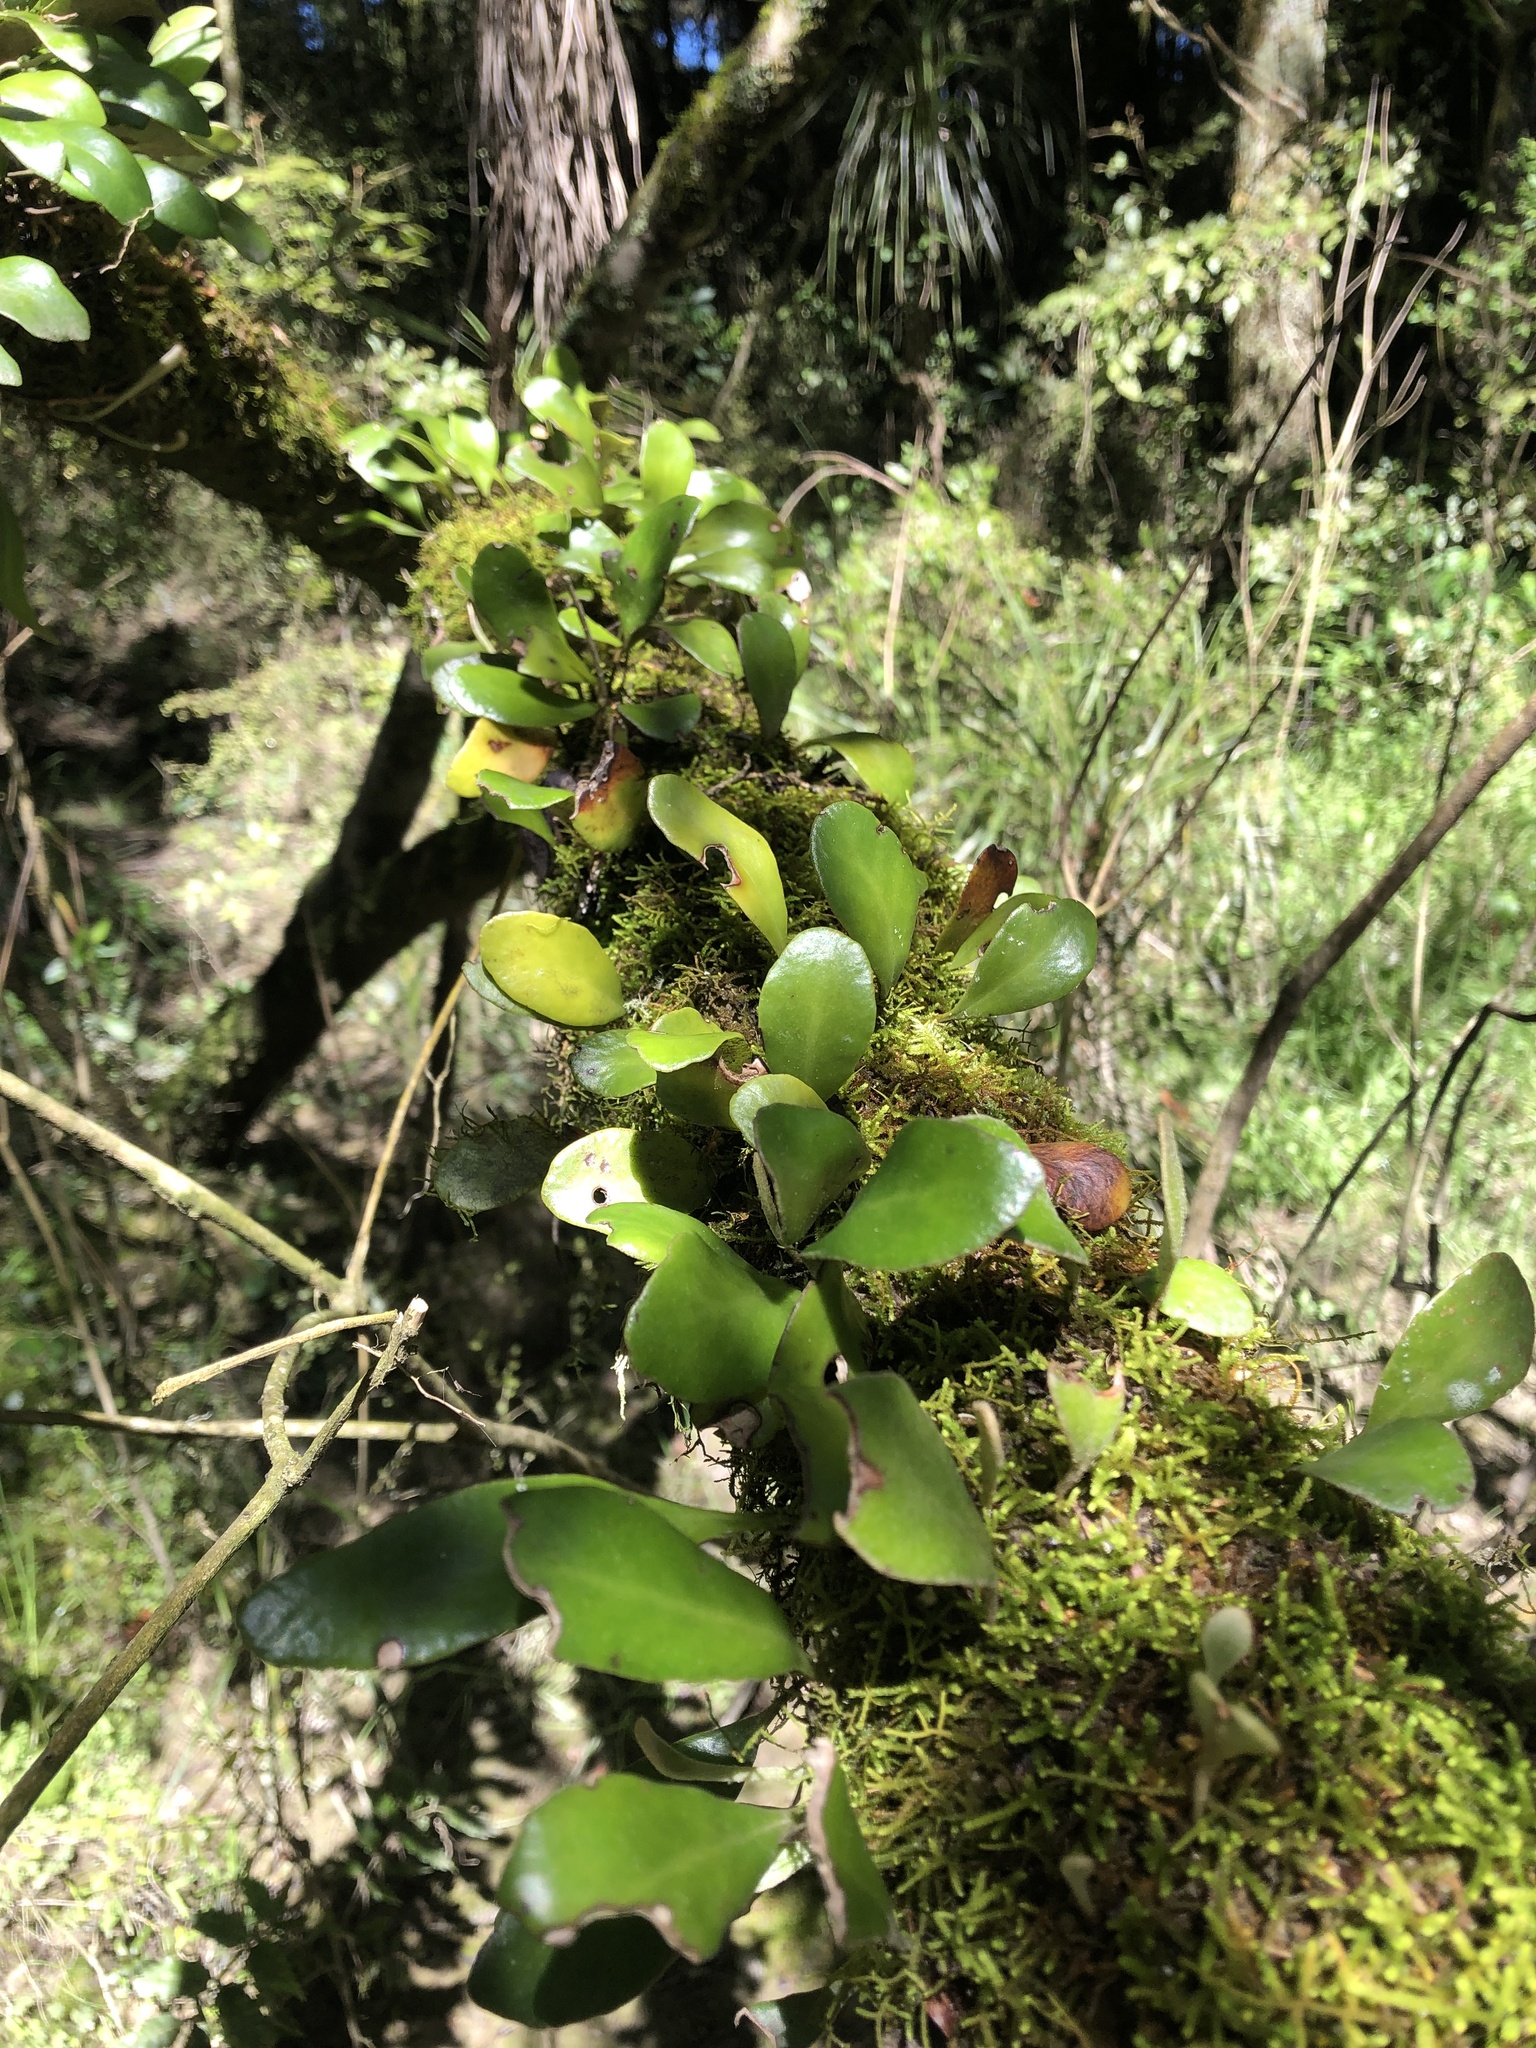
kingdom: Plantae
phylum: Tracheophyta
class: Polypodiopsida
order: Polypodiales
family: Polypodiaceae
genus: Pyrrosia
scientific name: Pyrrosia eleagnifolia
